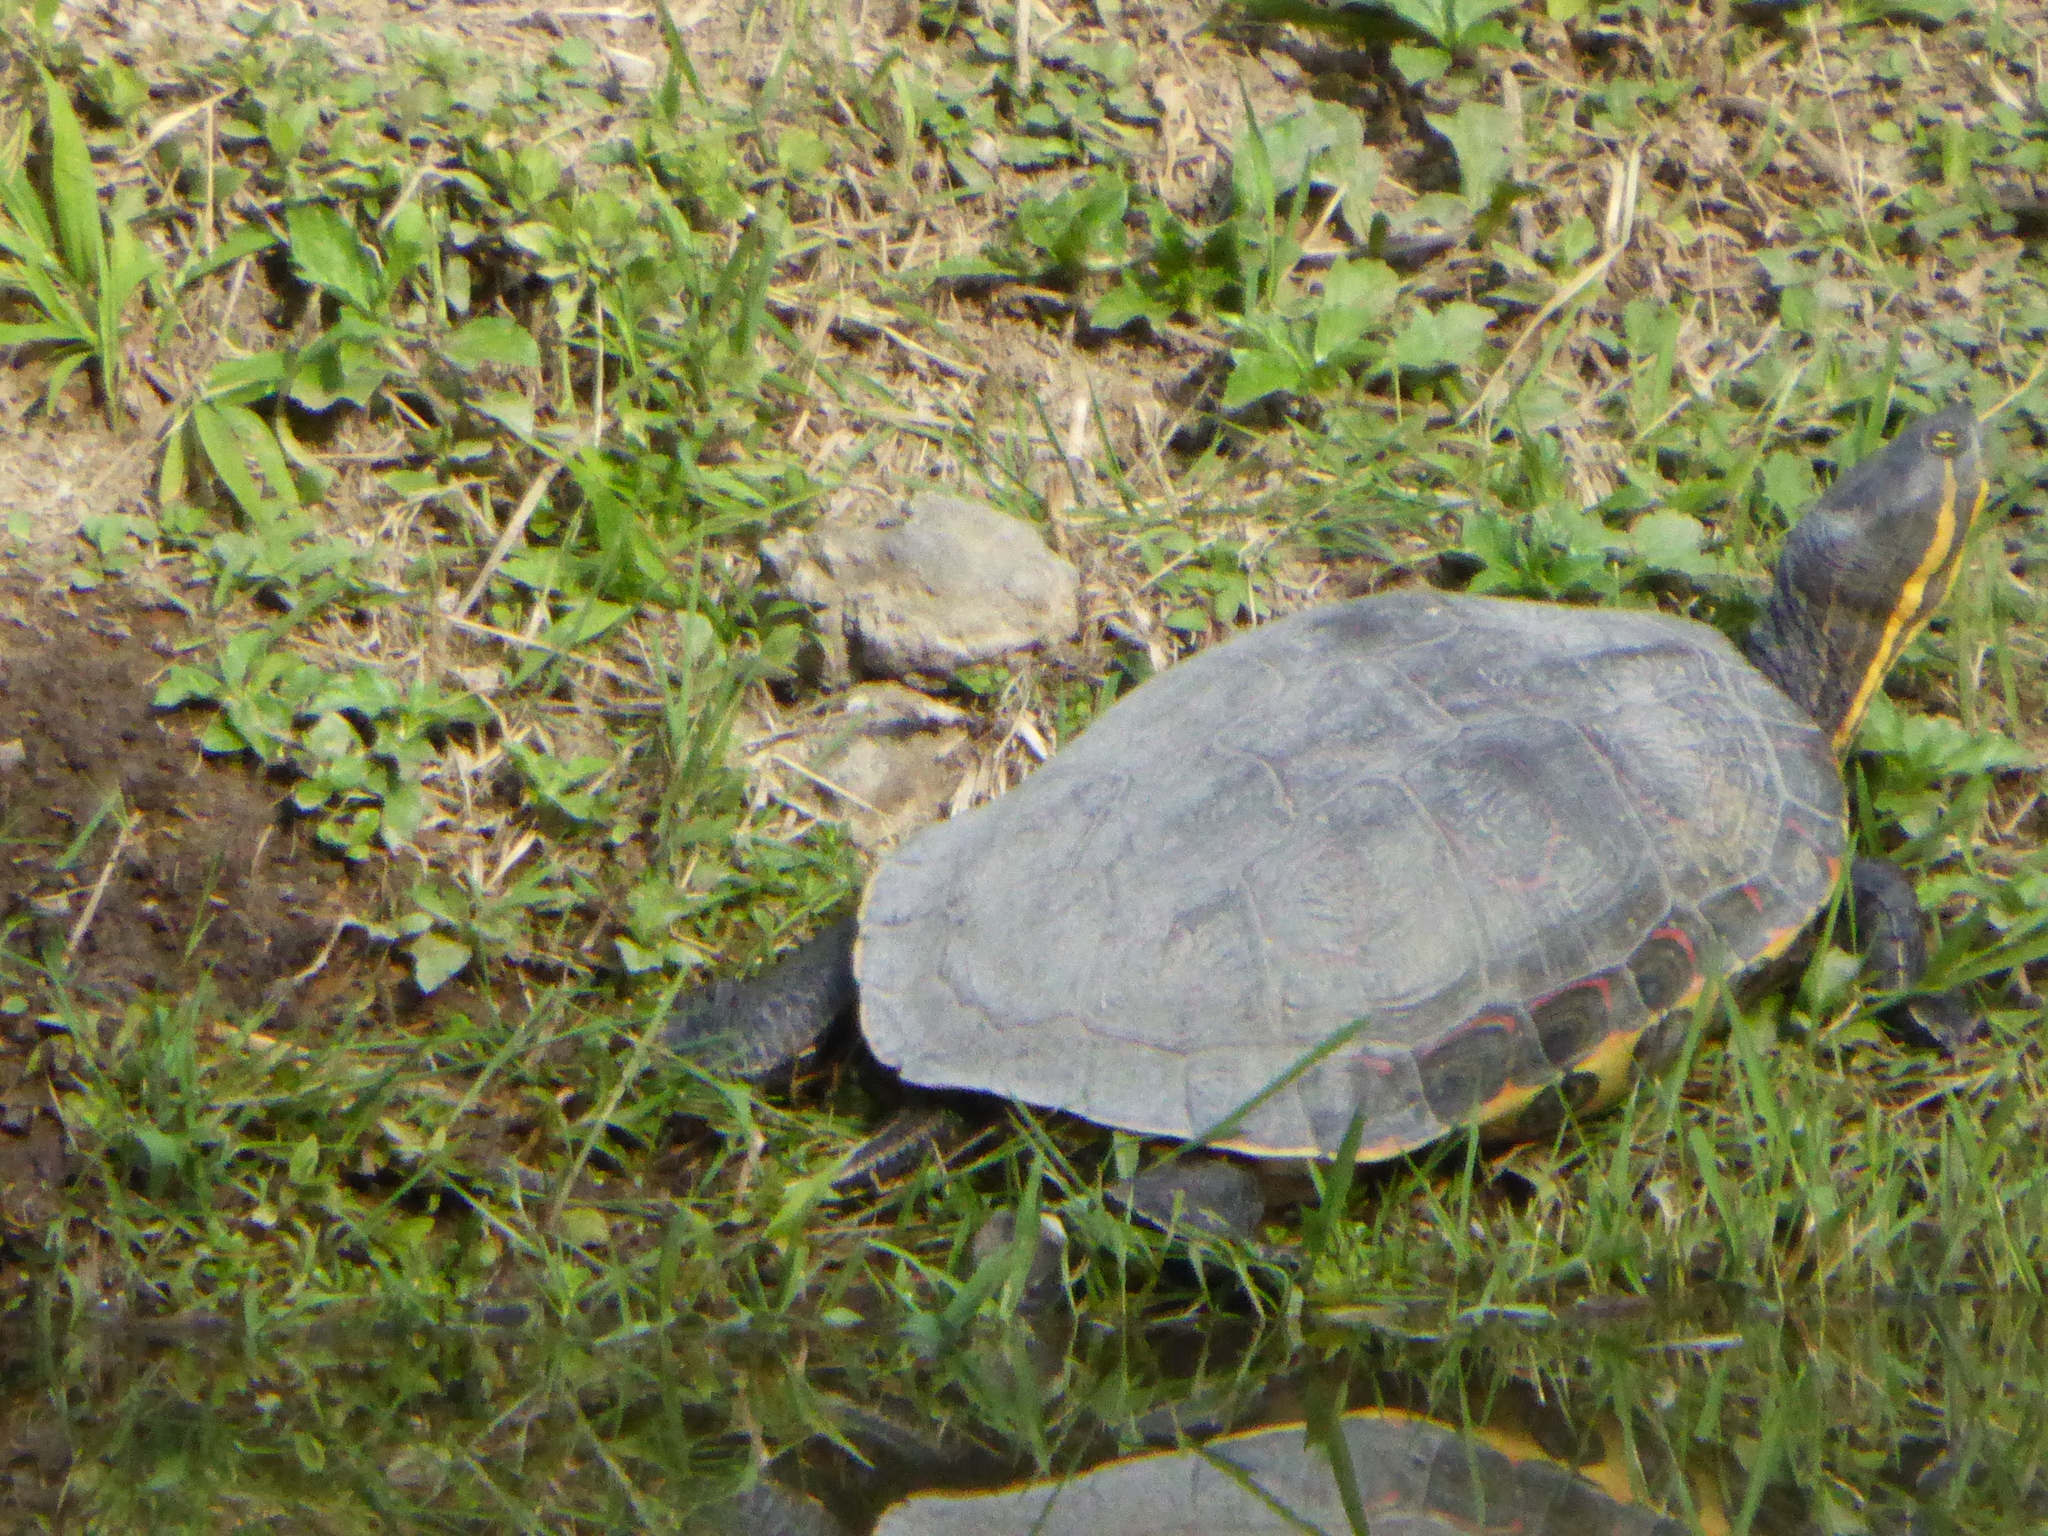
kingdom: Animalia
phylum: Chordata
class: Testudines
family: Emydidae
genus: Trachemys
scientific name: Trachemys venusta
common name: Mesoamerican slider
